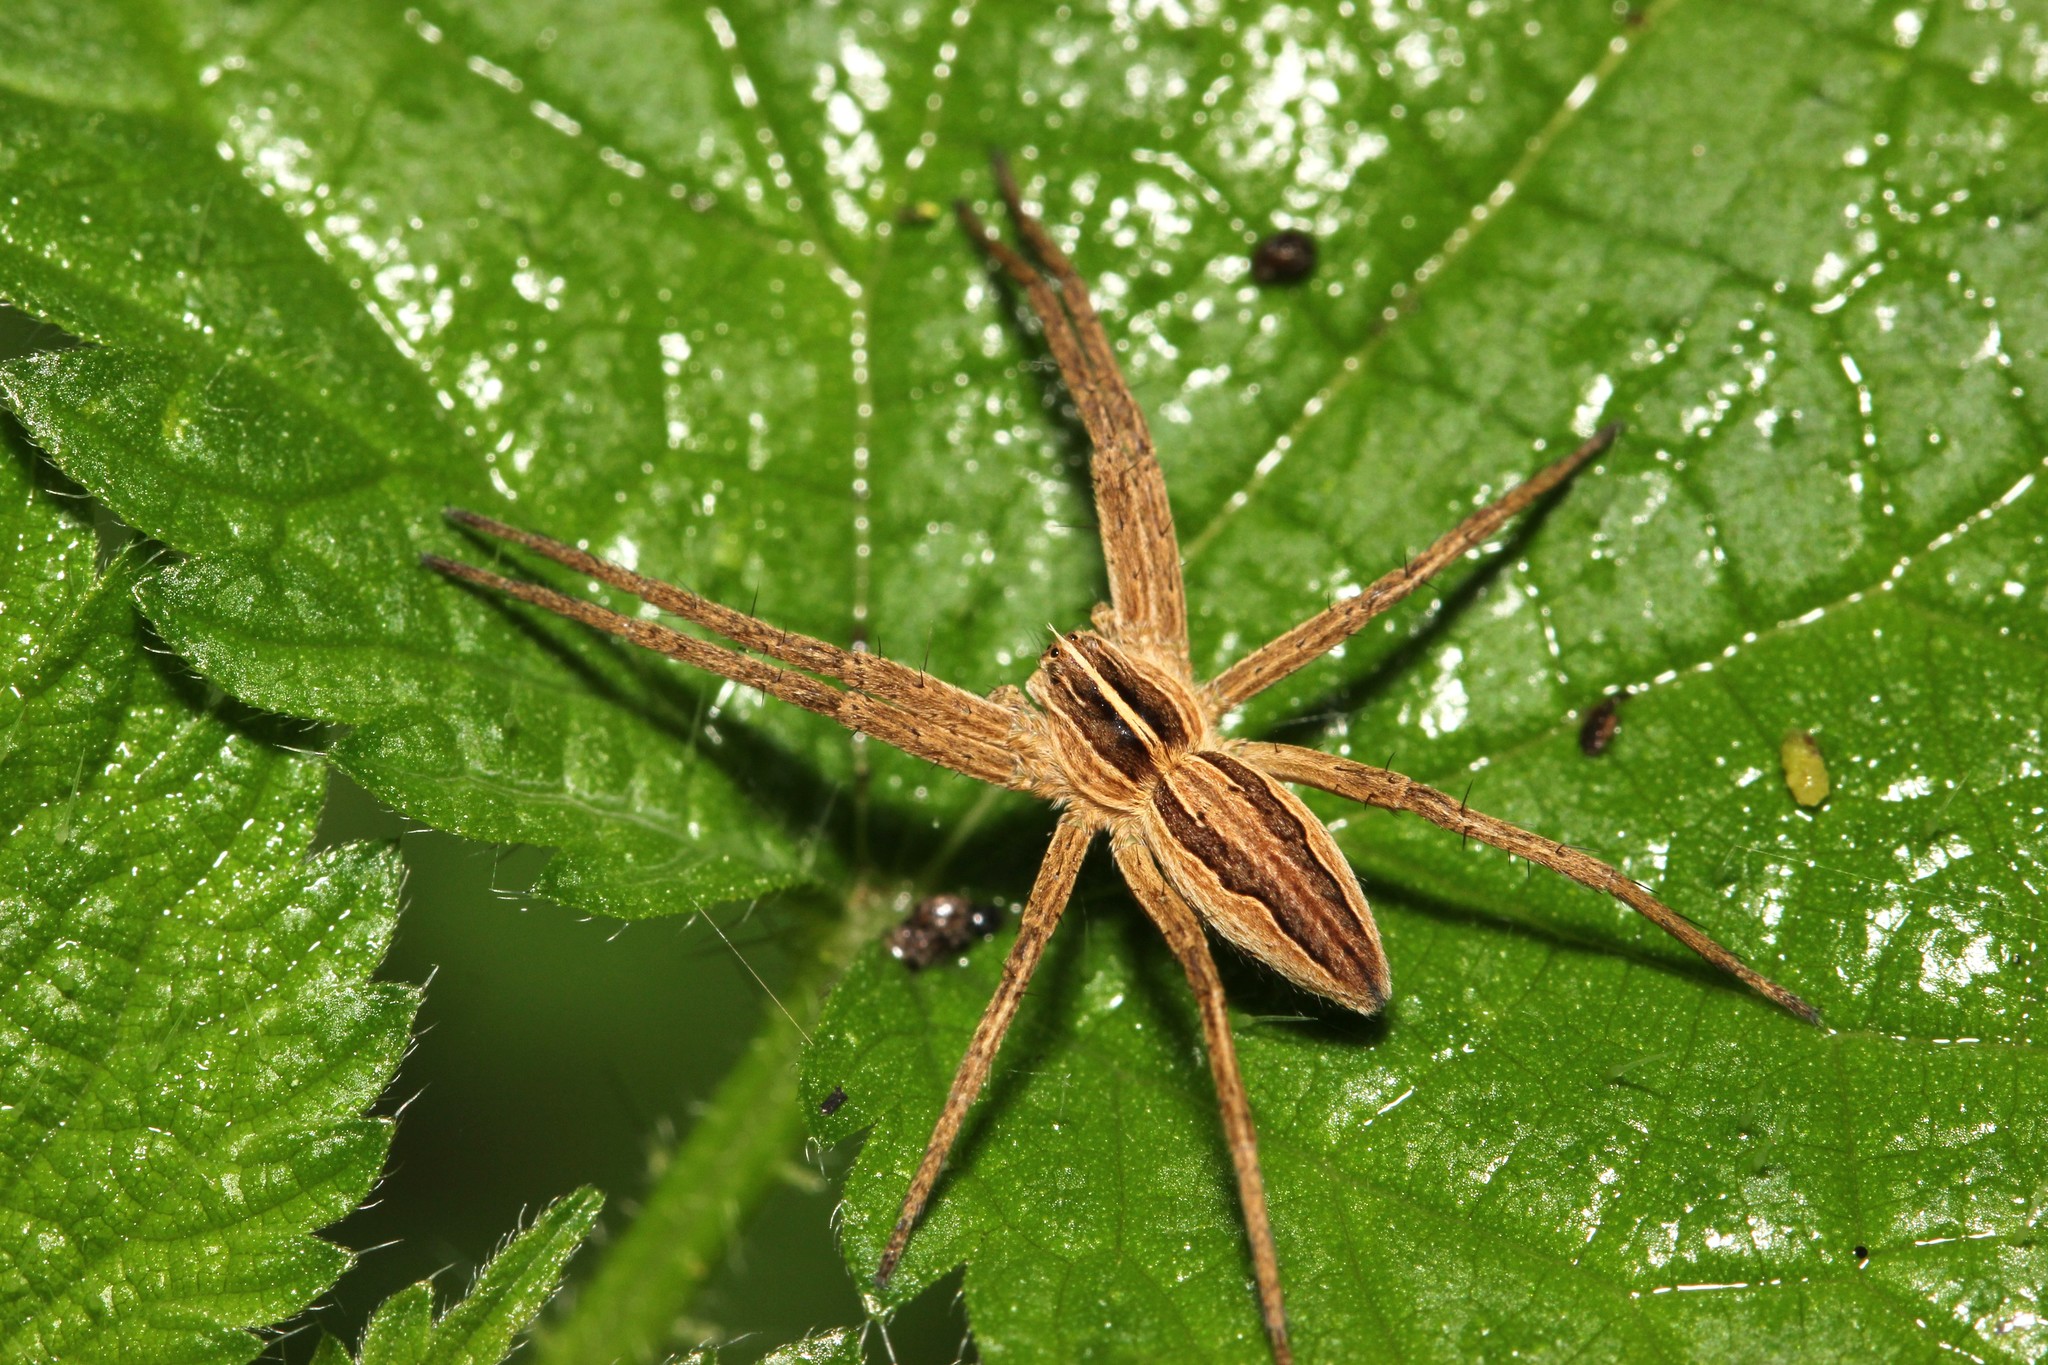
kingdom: Animalia
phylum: Arthropoda
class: Arachnida
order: Araneae
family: Pisauridae
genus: Pisaura
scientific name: Pisaura mirabilis
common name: Tent spider
